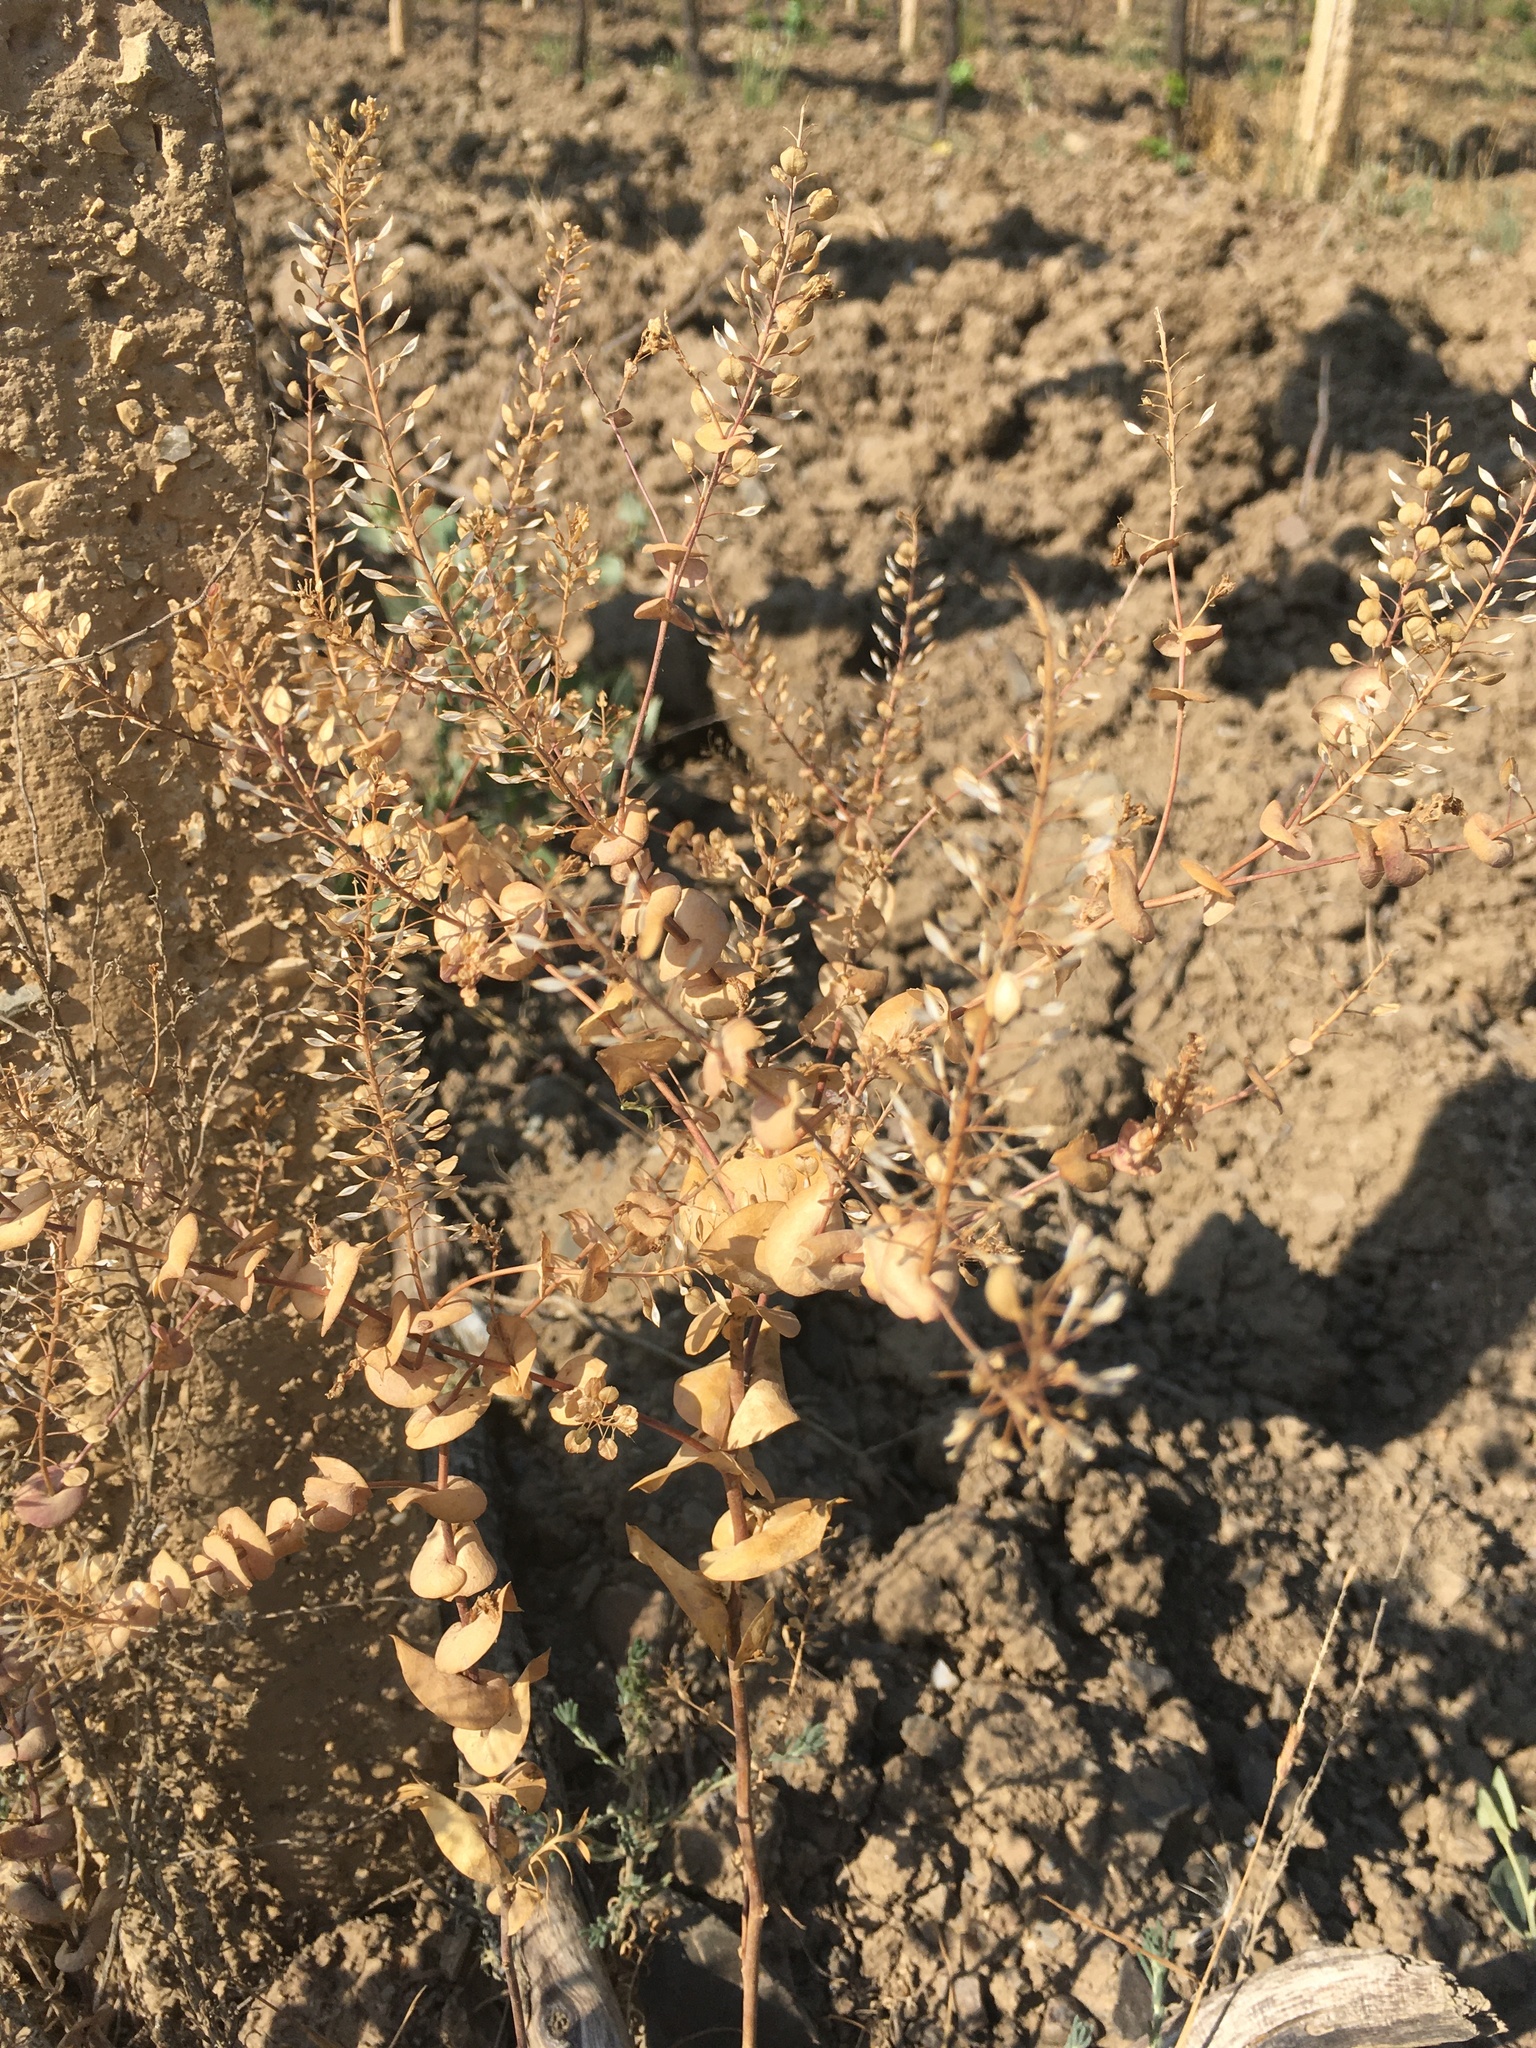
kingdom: Plantae
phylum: Tracheophyta
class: Magnoliopsida
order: Brassicales
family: Brassicaceae
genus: Lepidium
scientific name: Lepidium perfoliatum
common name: Perfoliate pepperwort
